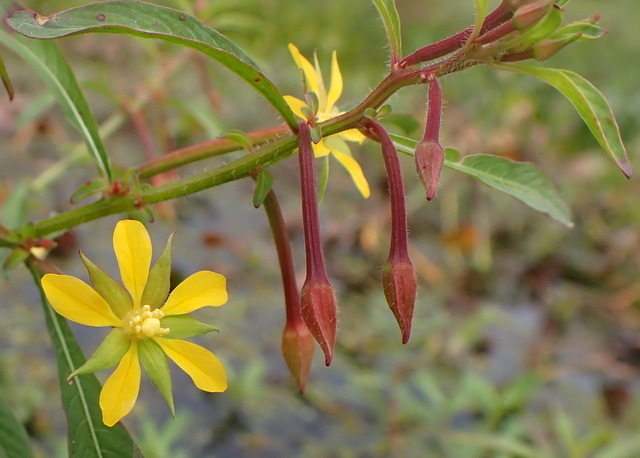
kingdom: Plantae
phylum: Tracheophyta
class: Magnoliopsida
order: Myrtales
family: Onagraceae
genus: Ludwigia
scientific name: Ludwigia leptocarpa
